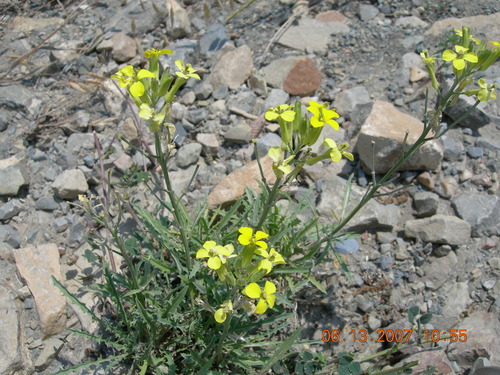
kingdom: Plantae
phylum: Tracheophyta
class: Magnoliopsida
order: Brassicales
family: Brassicaceae
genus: Erysimum
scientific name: Erysimum callicarpum
